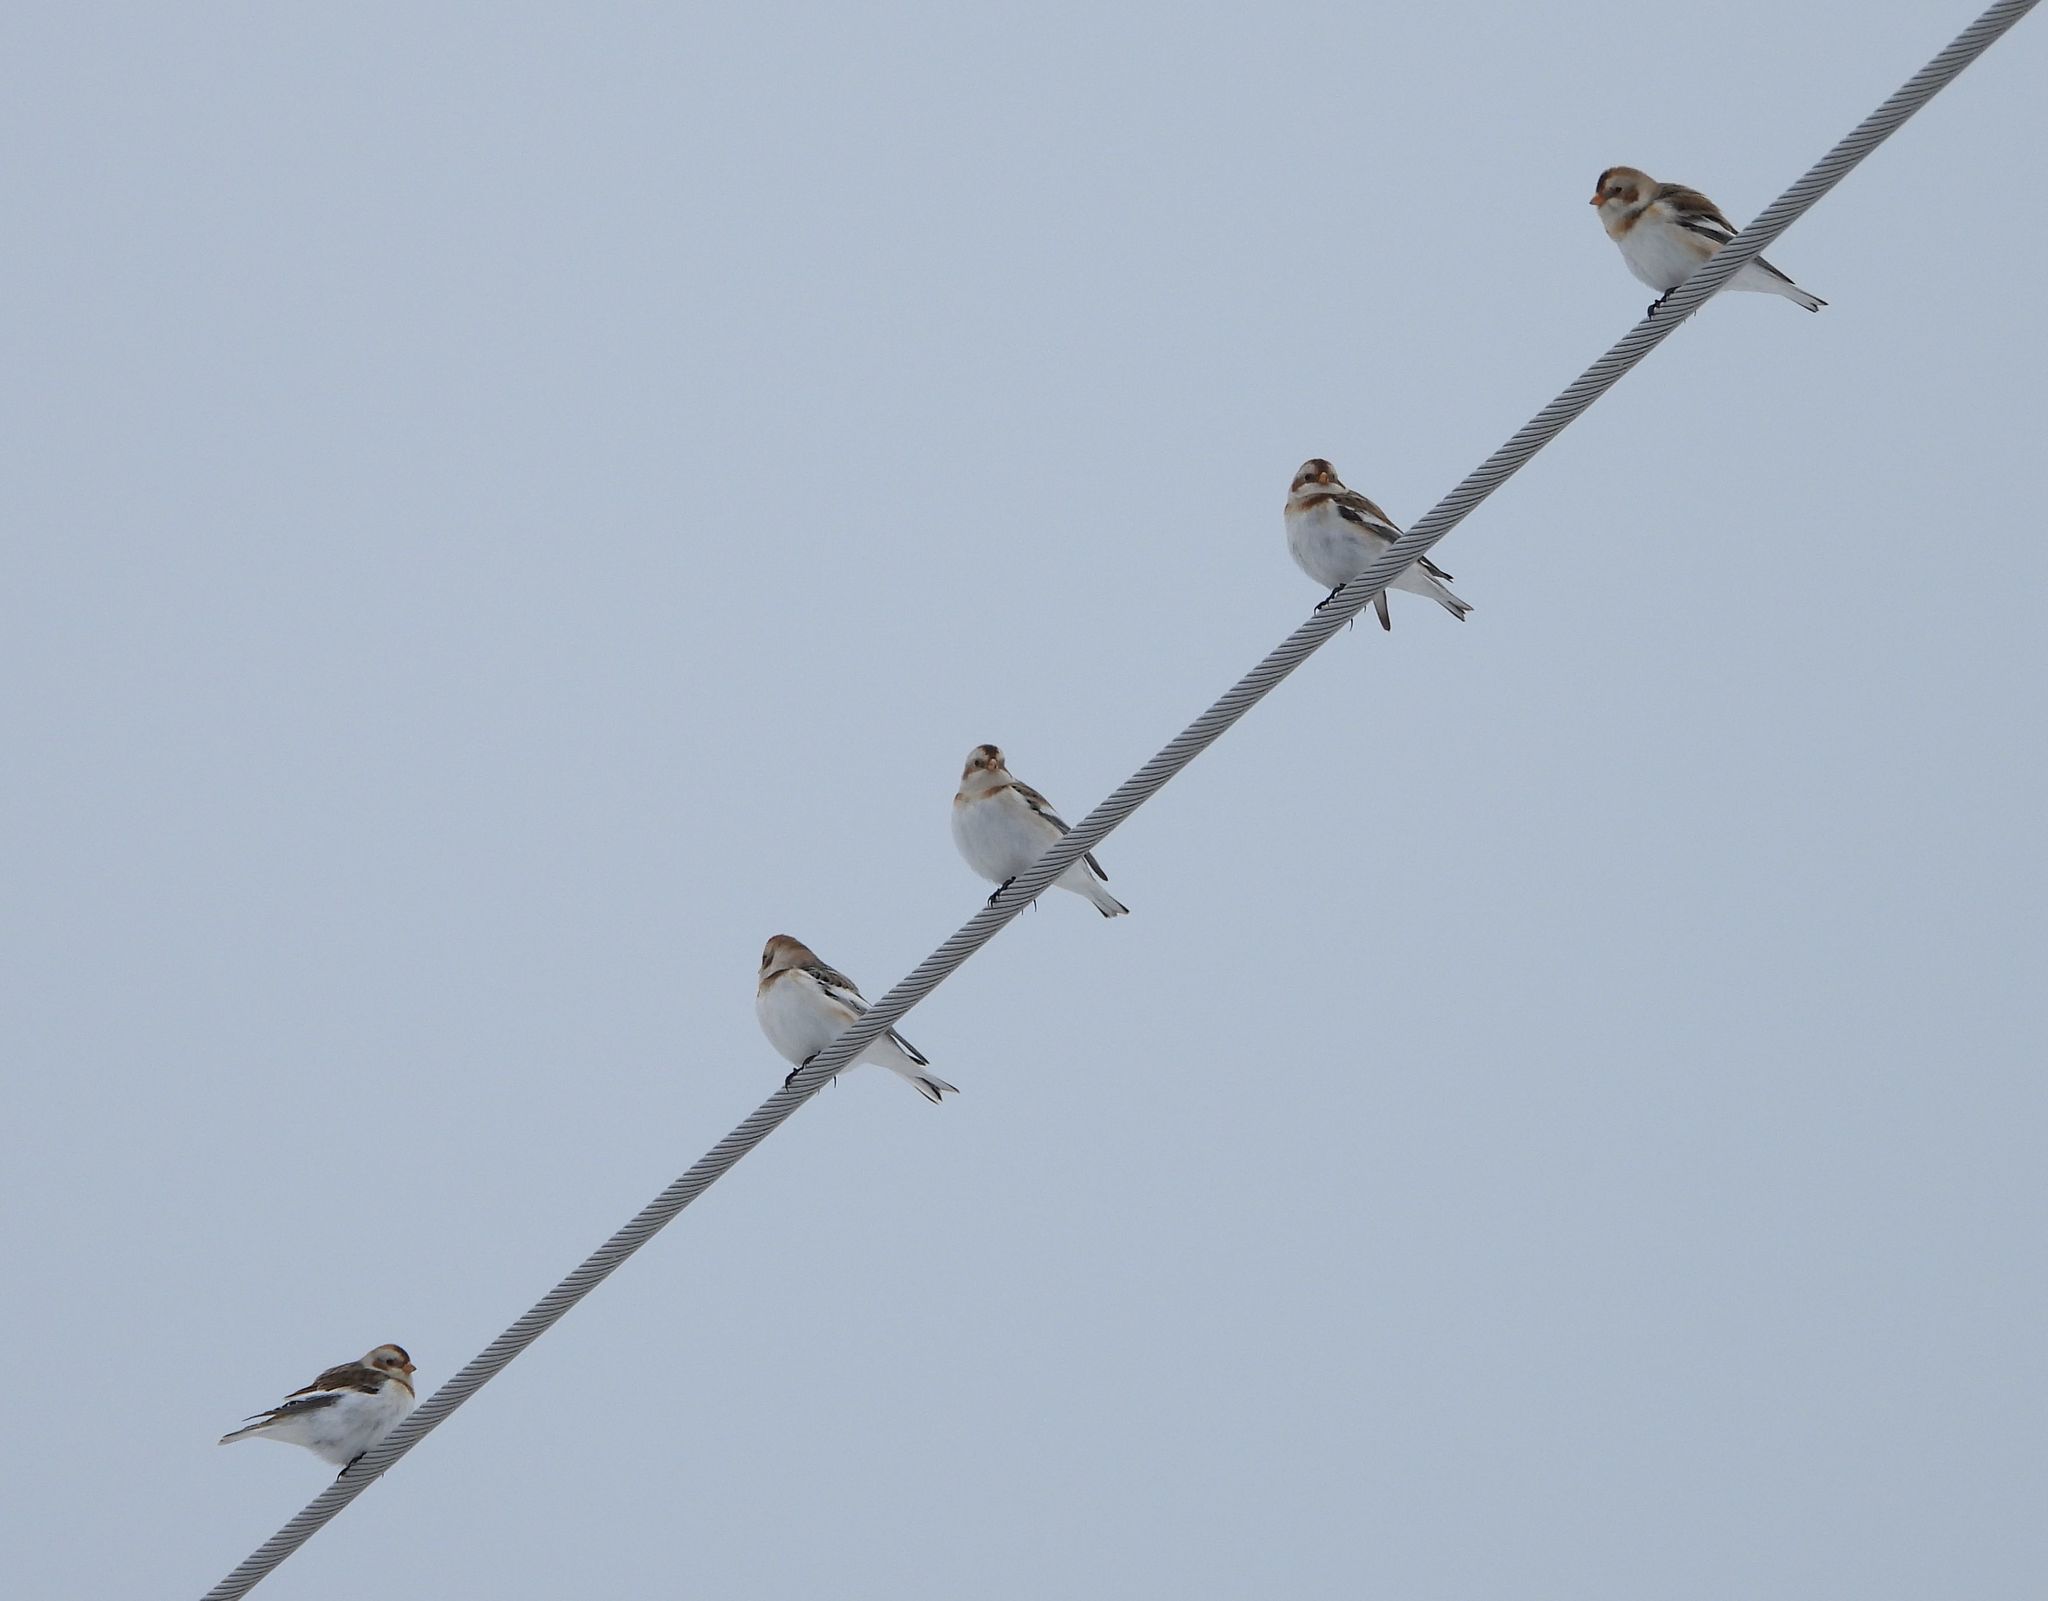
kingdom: Animalia
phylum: Chordata
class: Aves
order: Passeriformes
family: Calcariidae
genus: Plectrophenax
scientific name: Plectrophenax nivalis
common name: Snow bunting
